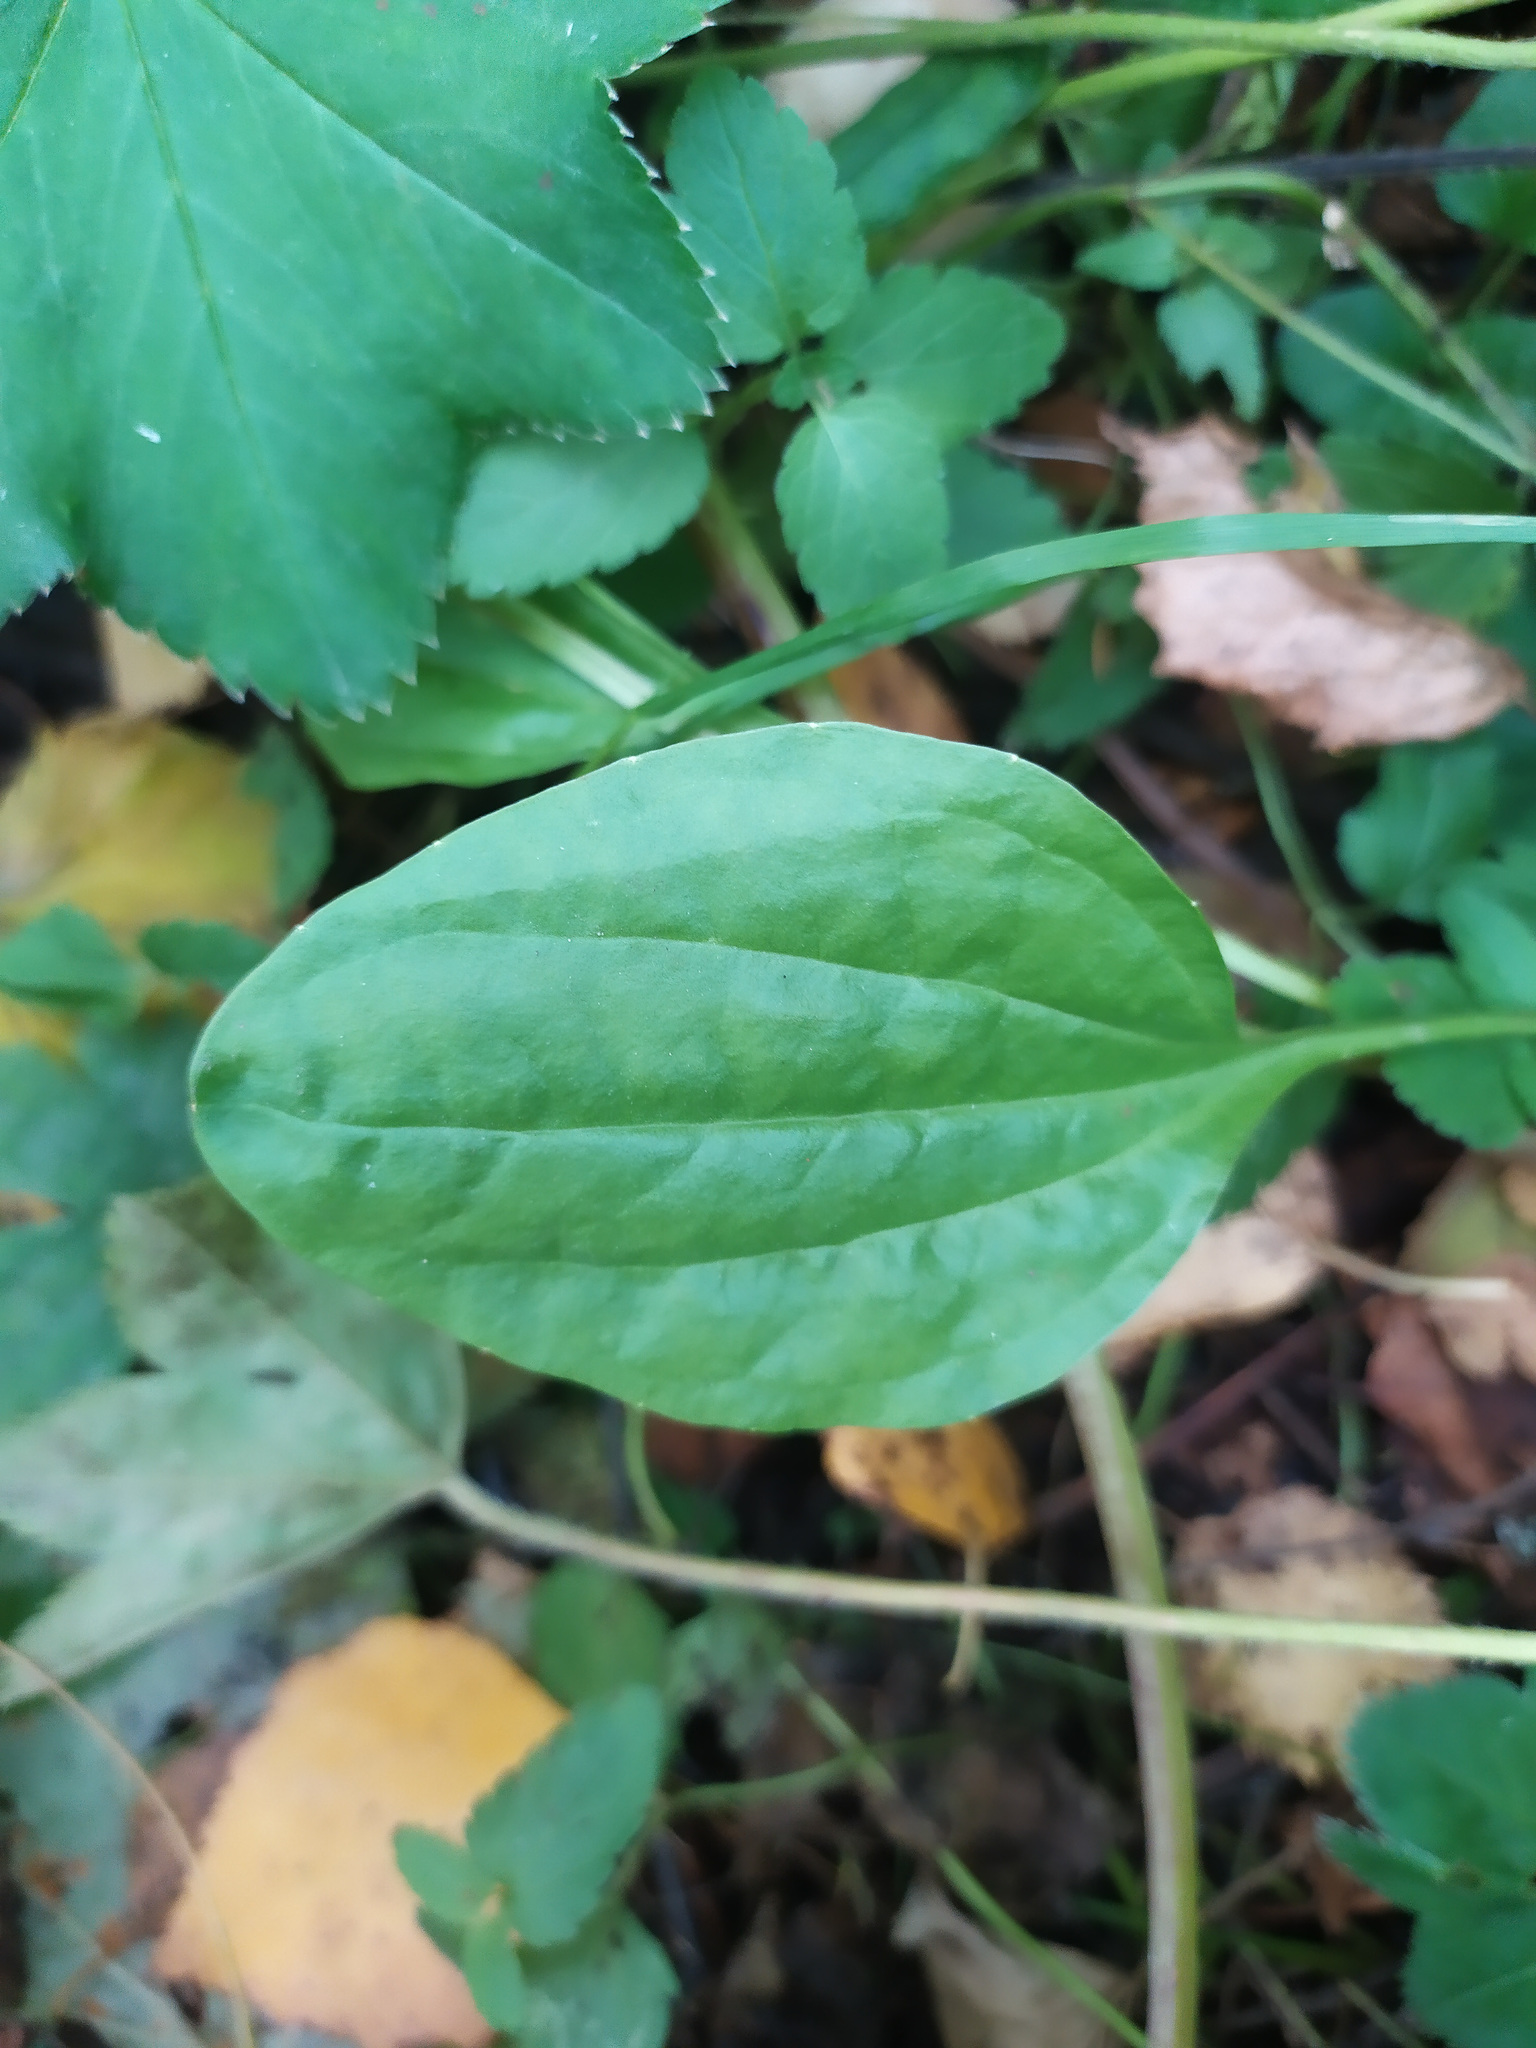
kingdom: Plantae
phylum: Tracheophyta
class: Magnoliopsida
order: Lamiales
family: Plantaginaceae
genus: Plantago
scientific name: Plantago major
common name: Common plantain
